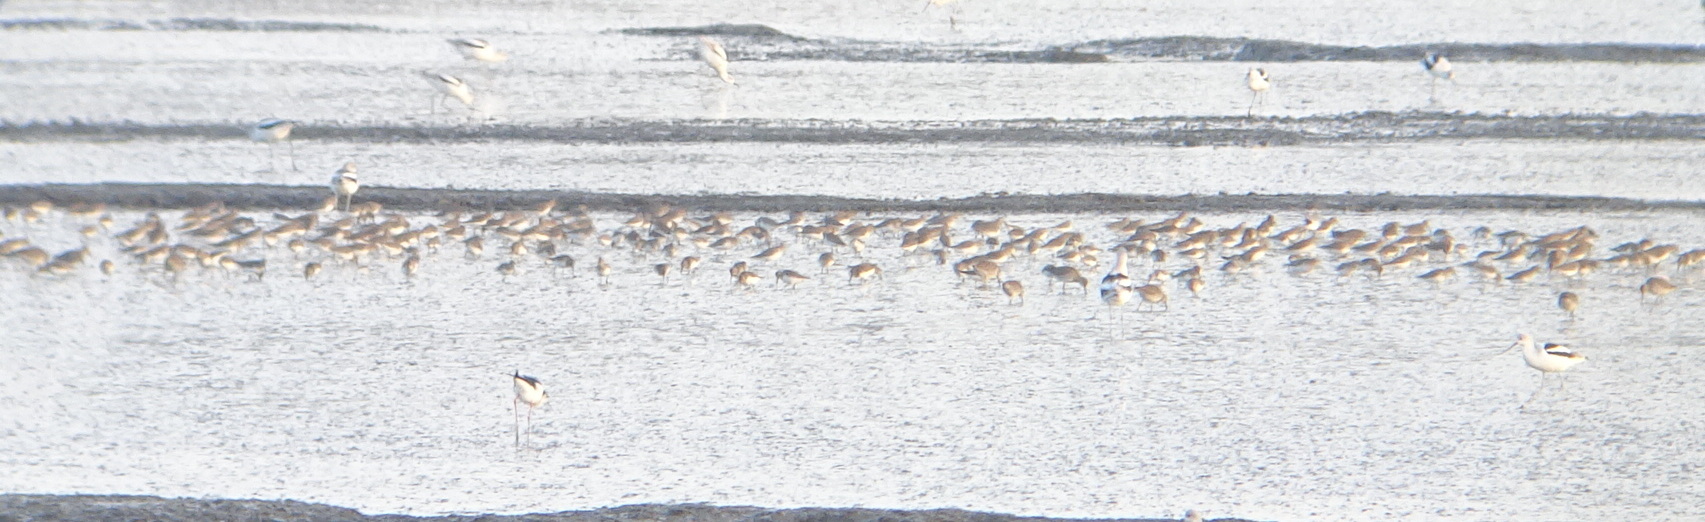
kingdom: Animalia
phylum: Chordata
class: Aves
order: Charadriiformes
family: Scolopacidae
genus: Calidris
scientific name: Calidris alpina
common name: Dunlin
